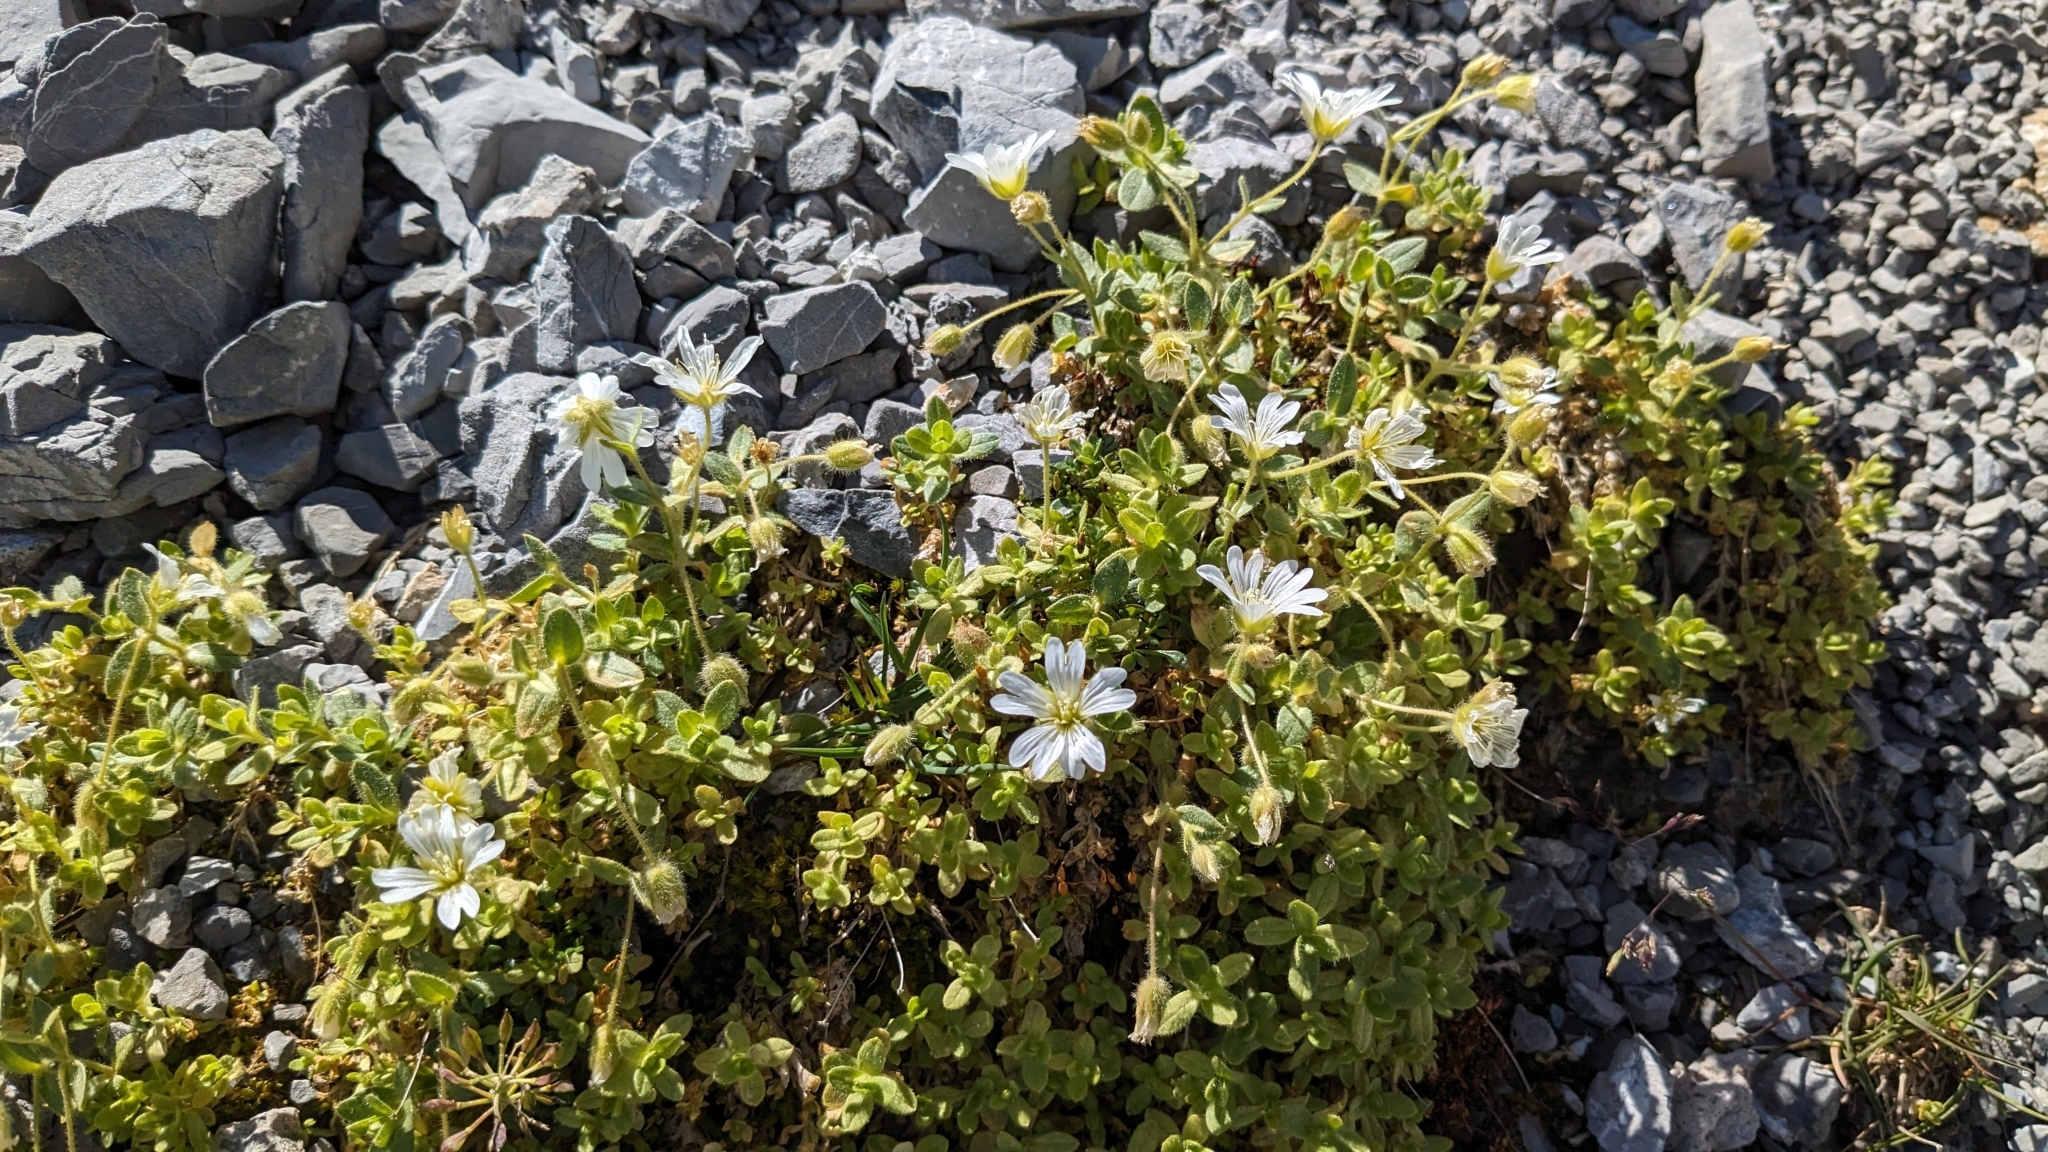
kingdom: Plantae
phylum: Tracheophyta
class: Magnoliopsida
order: Caryophyllales
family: Caryophyllaceae
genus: Cerastium
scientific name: Cerastium uniflorum
